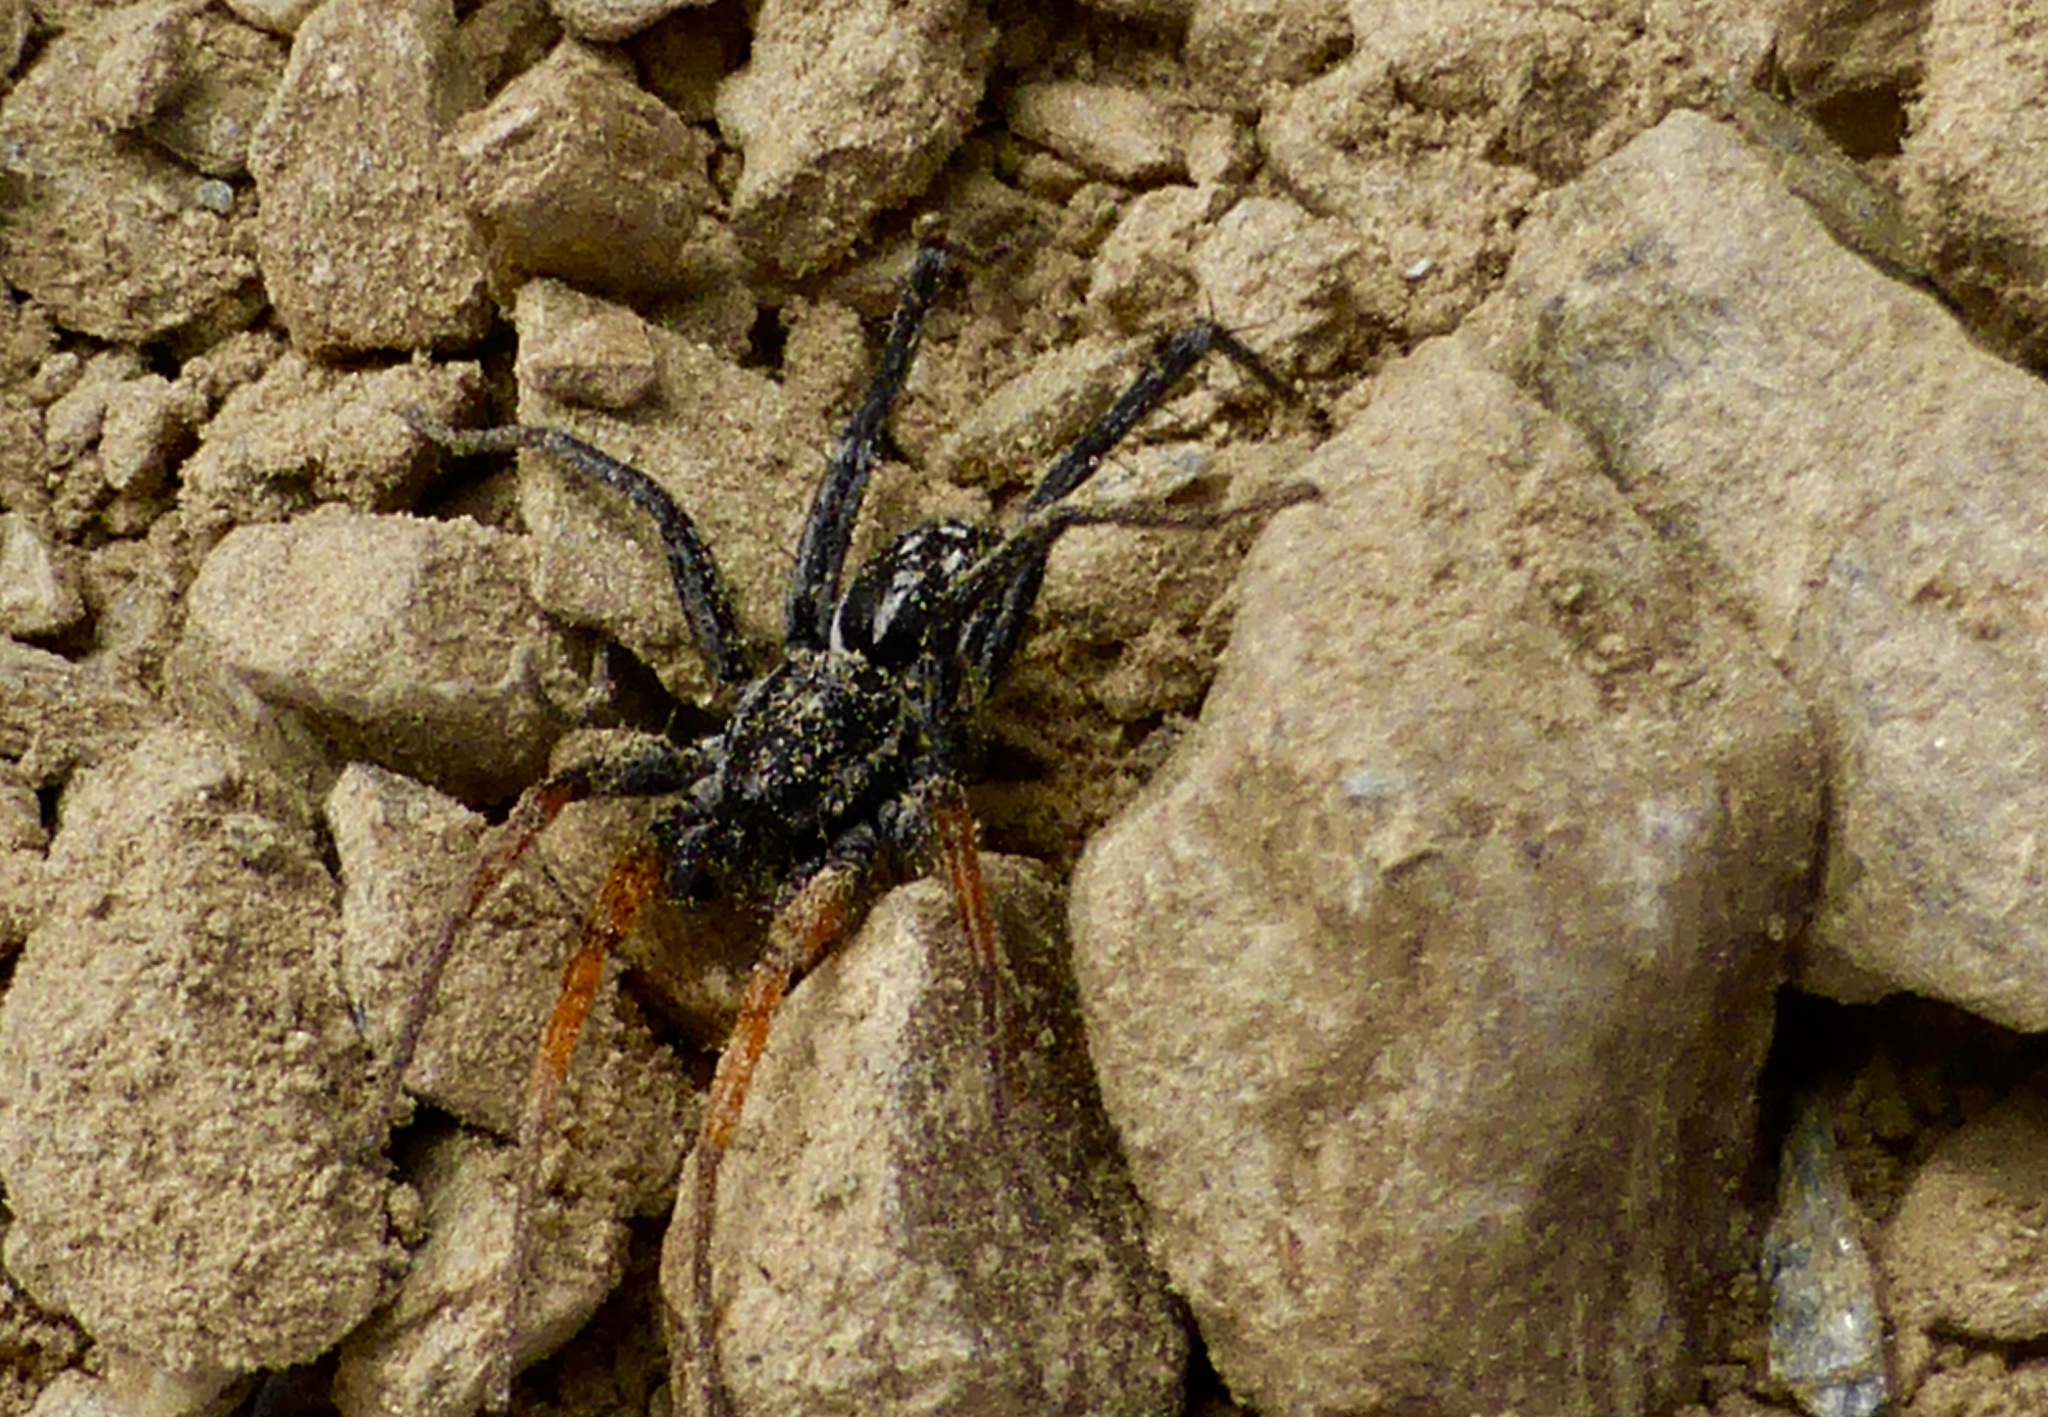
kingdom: Animalia
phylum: Arthropoda
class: Arachnida
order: Araneae
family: Corinnidae
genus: Nyssus
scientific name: Nyssus coloripes
